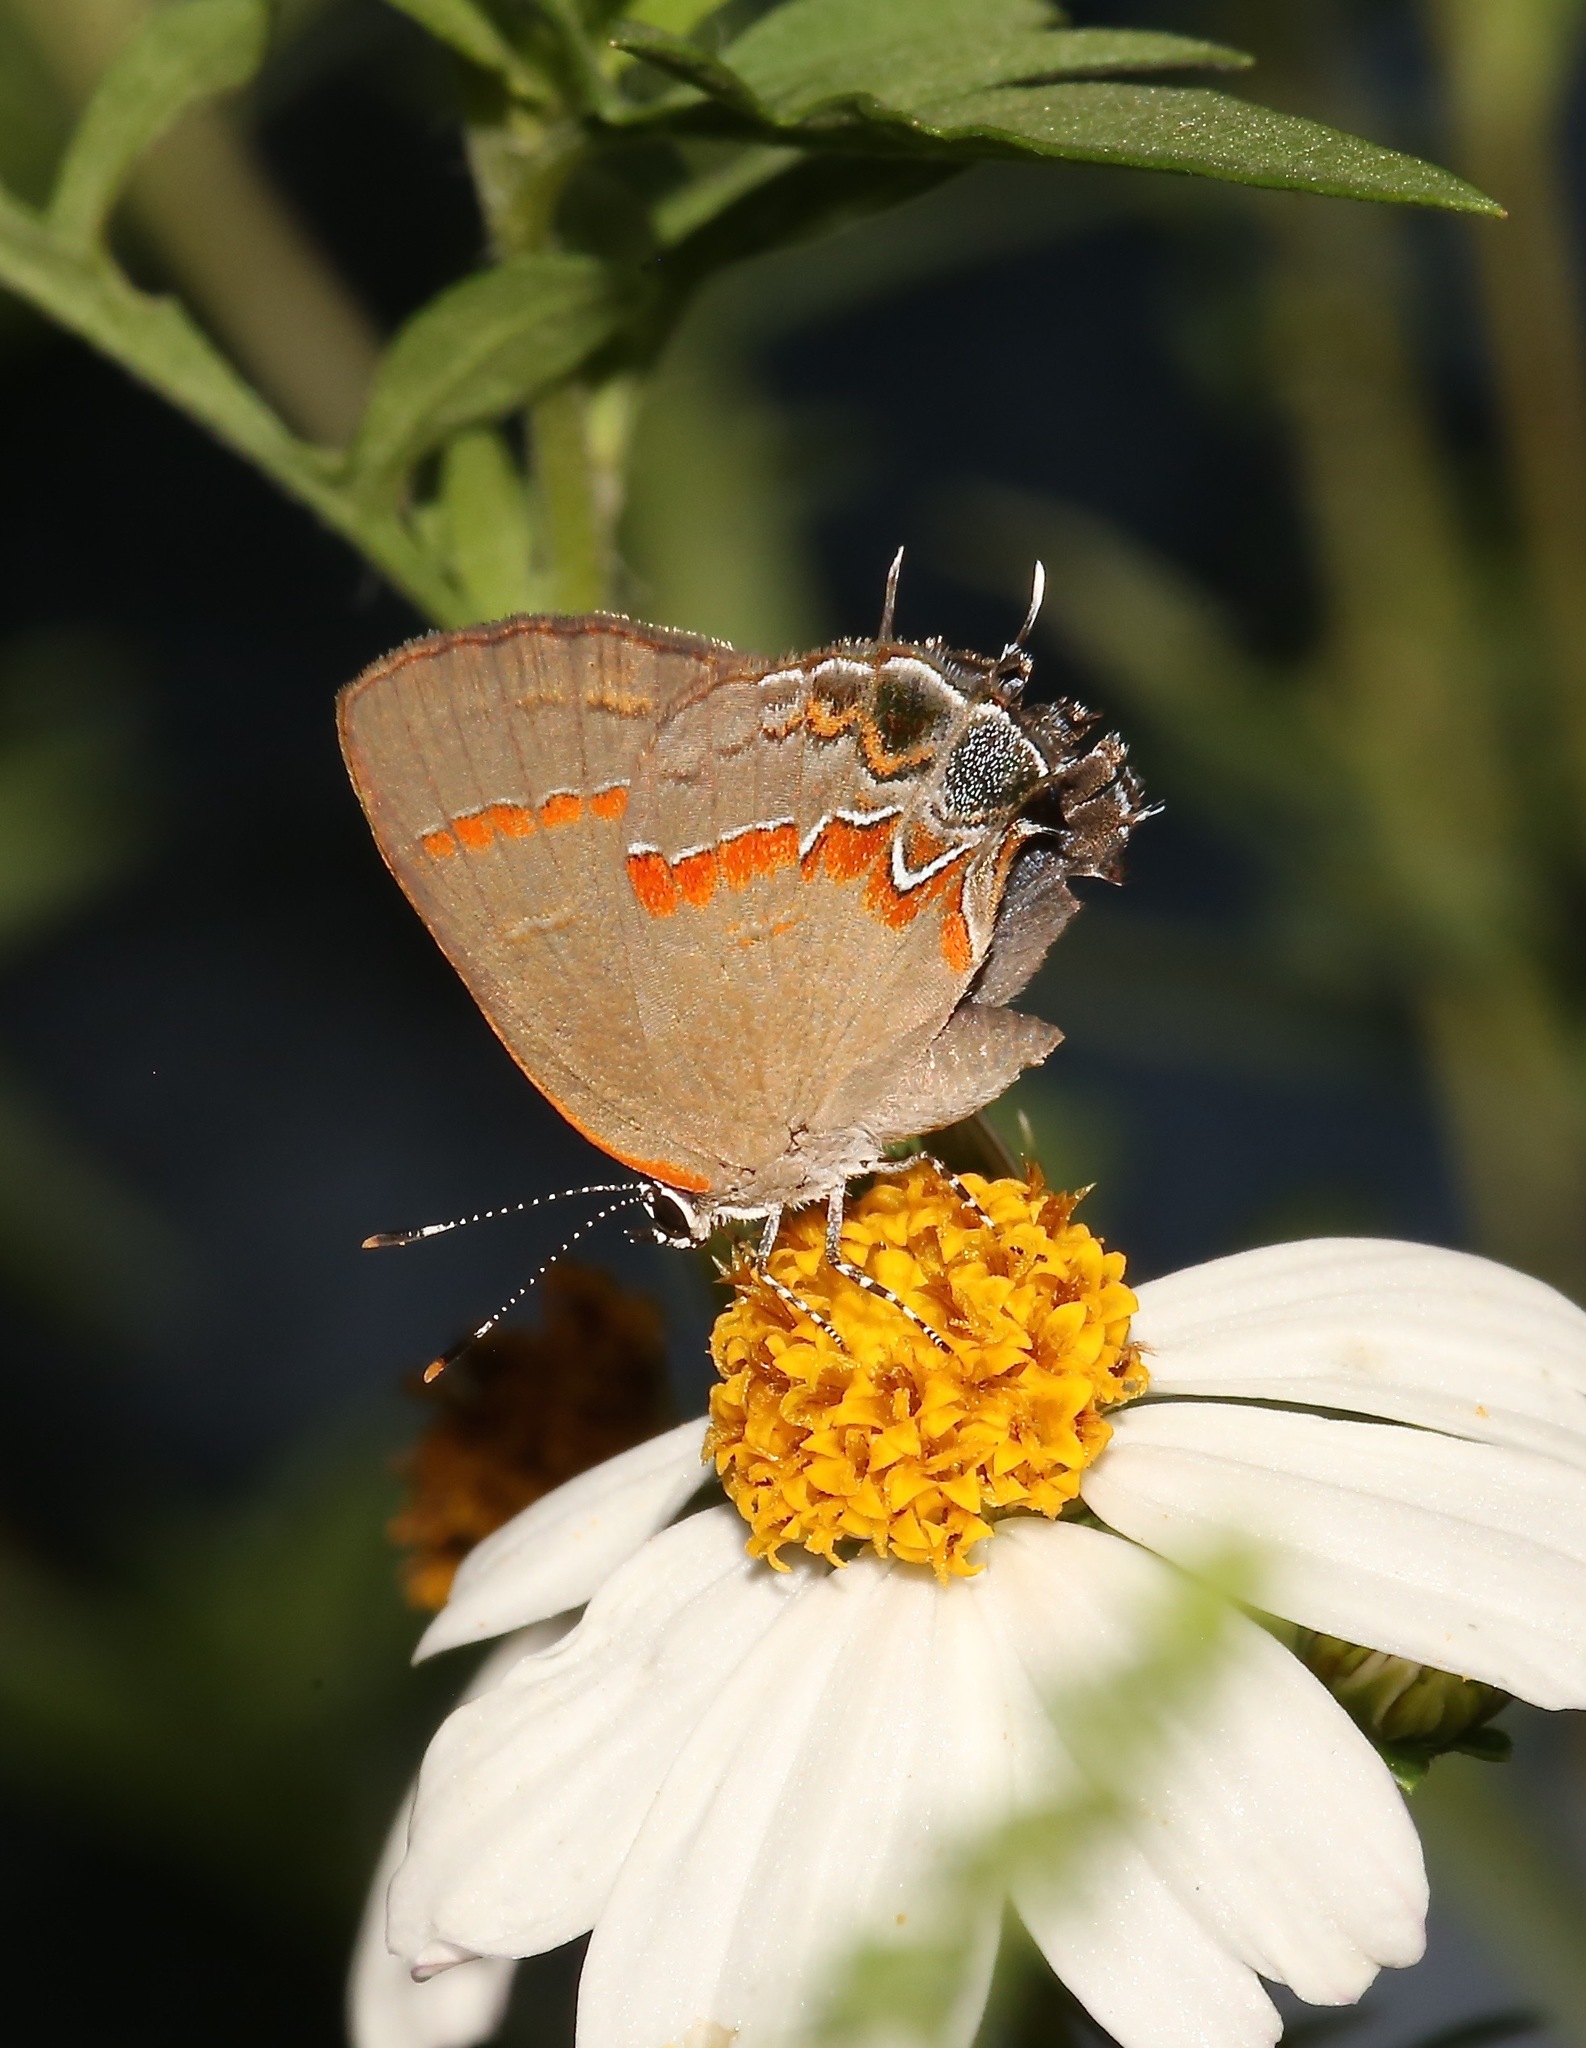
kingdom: Animalia
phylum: Arthropoda
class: Insecta
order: Lepidoptera
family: Lycaenidae
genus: Calycopis
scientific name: Calycopis cecrops
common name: Red-banded hairstreak
